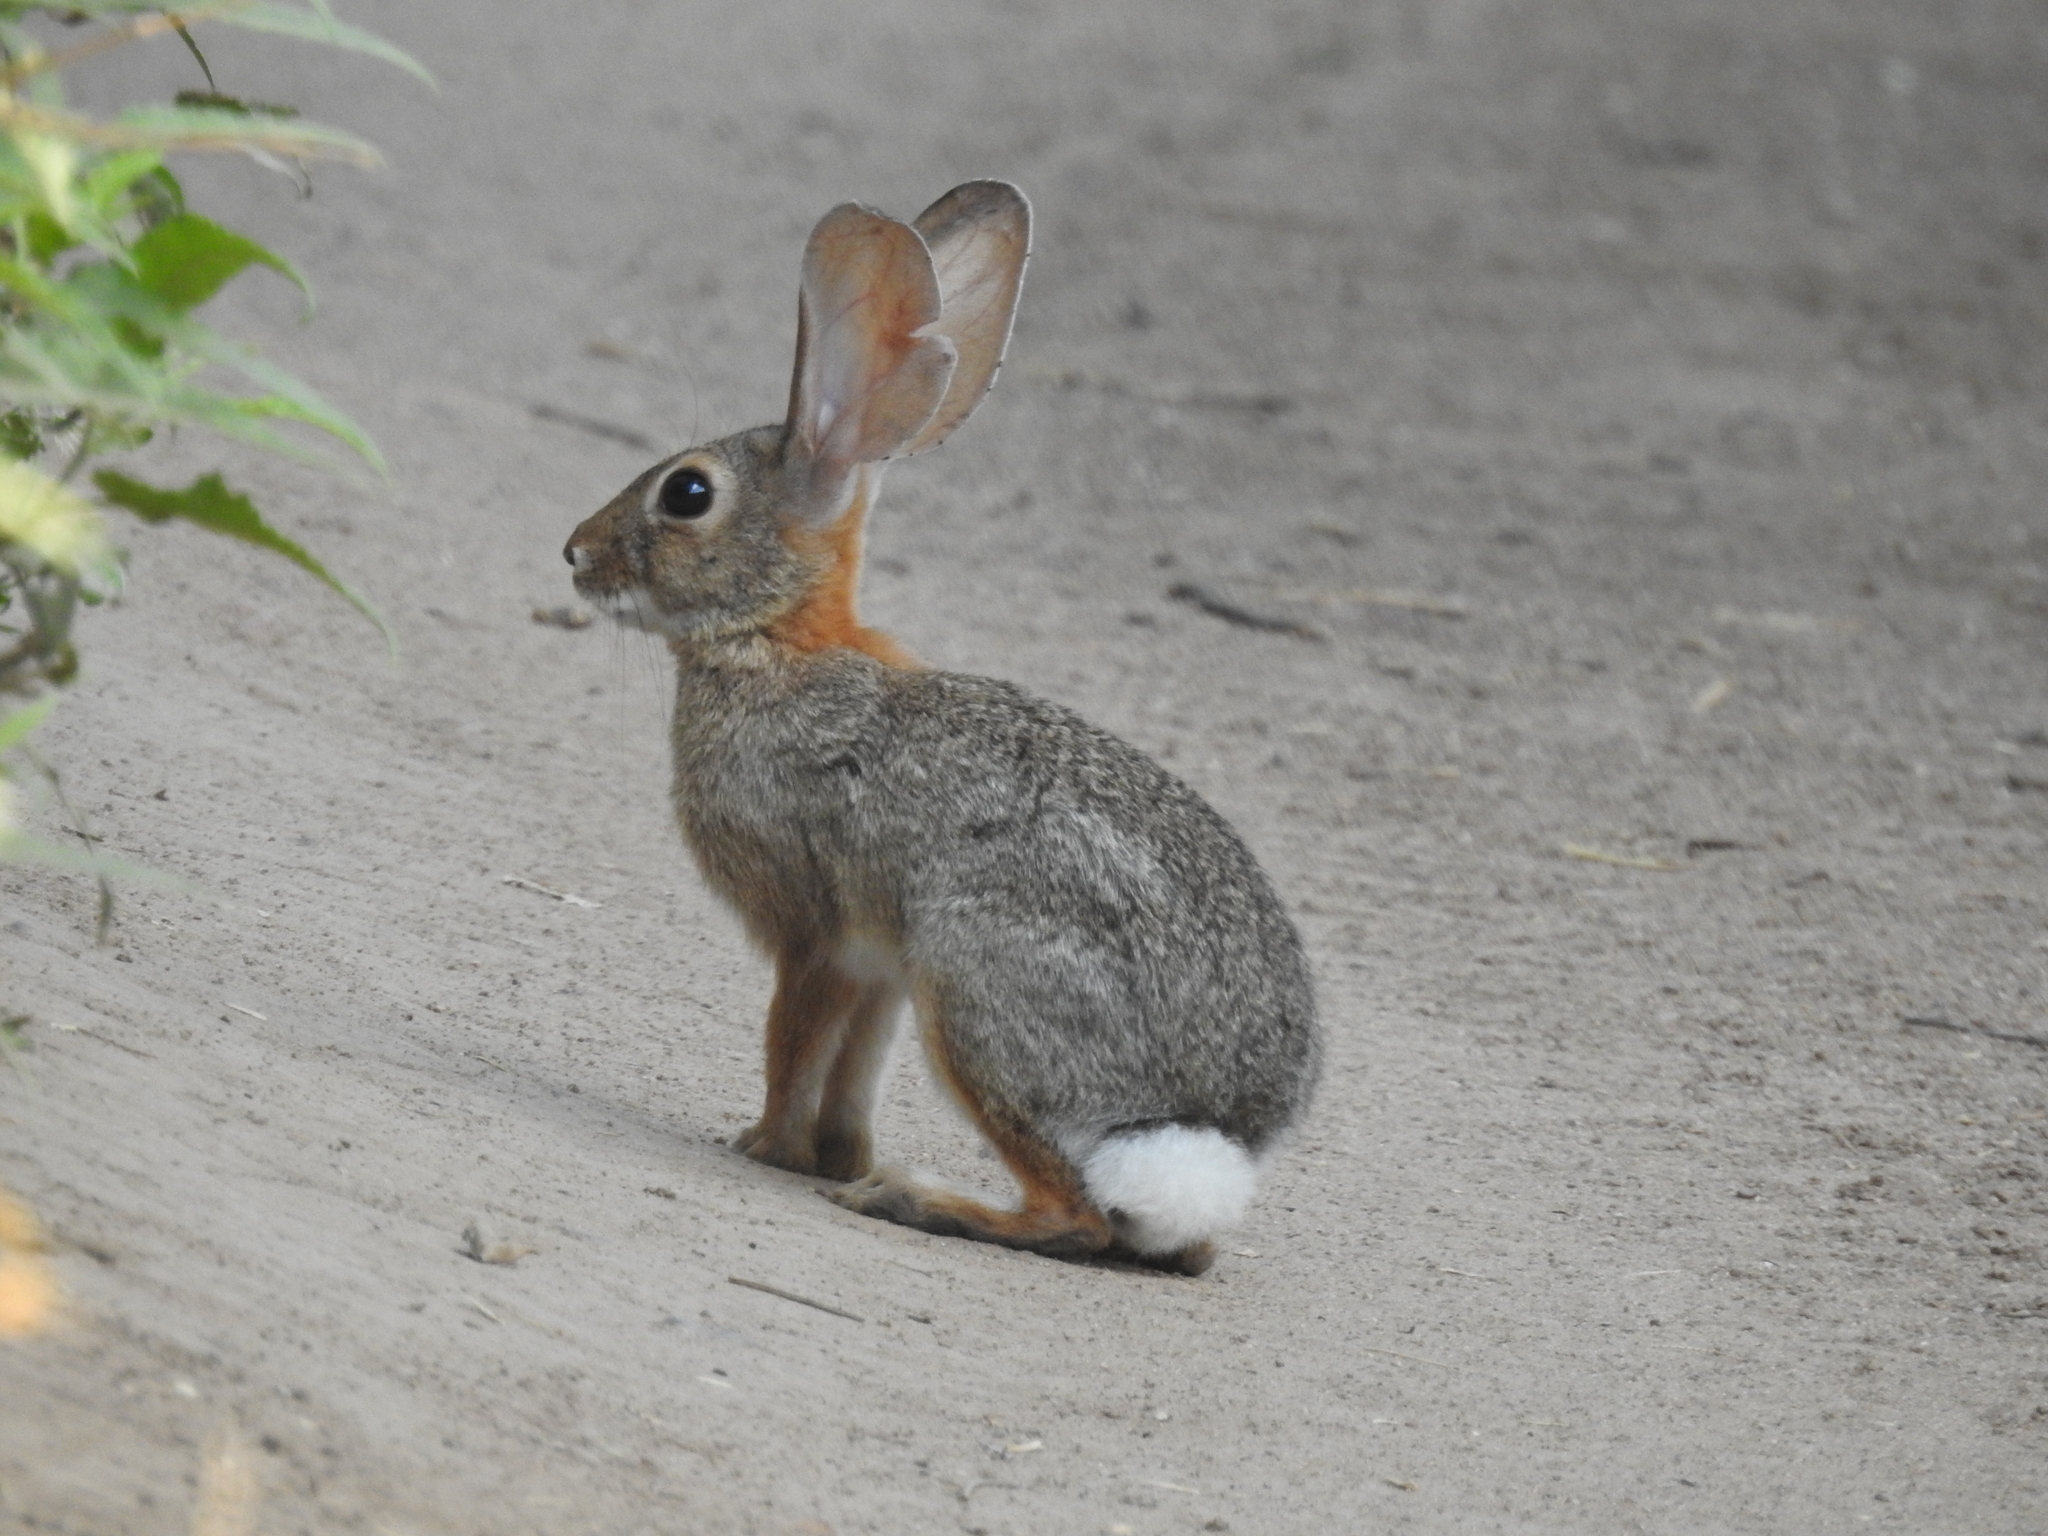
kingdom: Animalia
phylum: Chordata
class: Mammalia
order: Lagomorpha
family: Leporidae
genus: Sylvilagus
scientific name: Sylvilagus audubonii
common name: Desert cottontail
